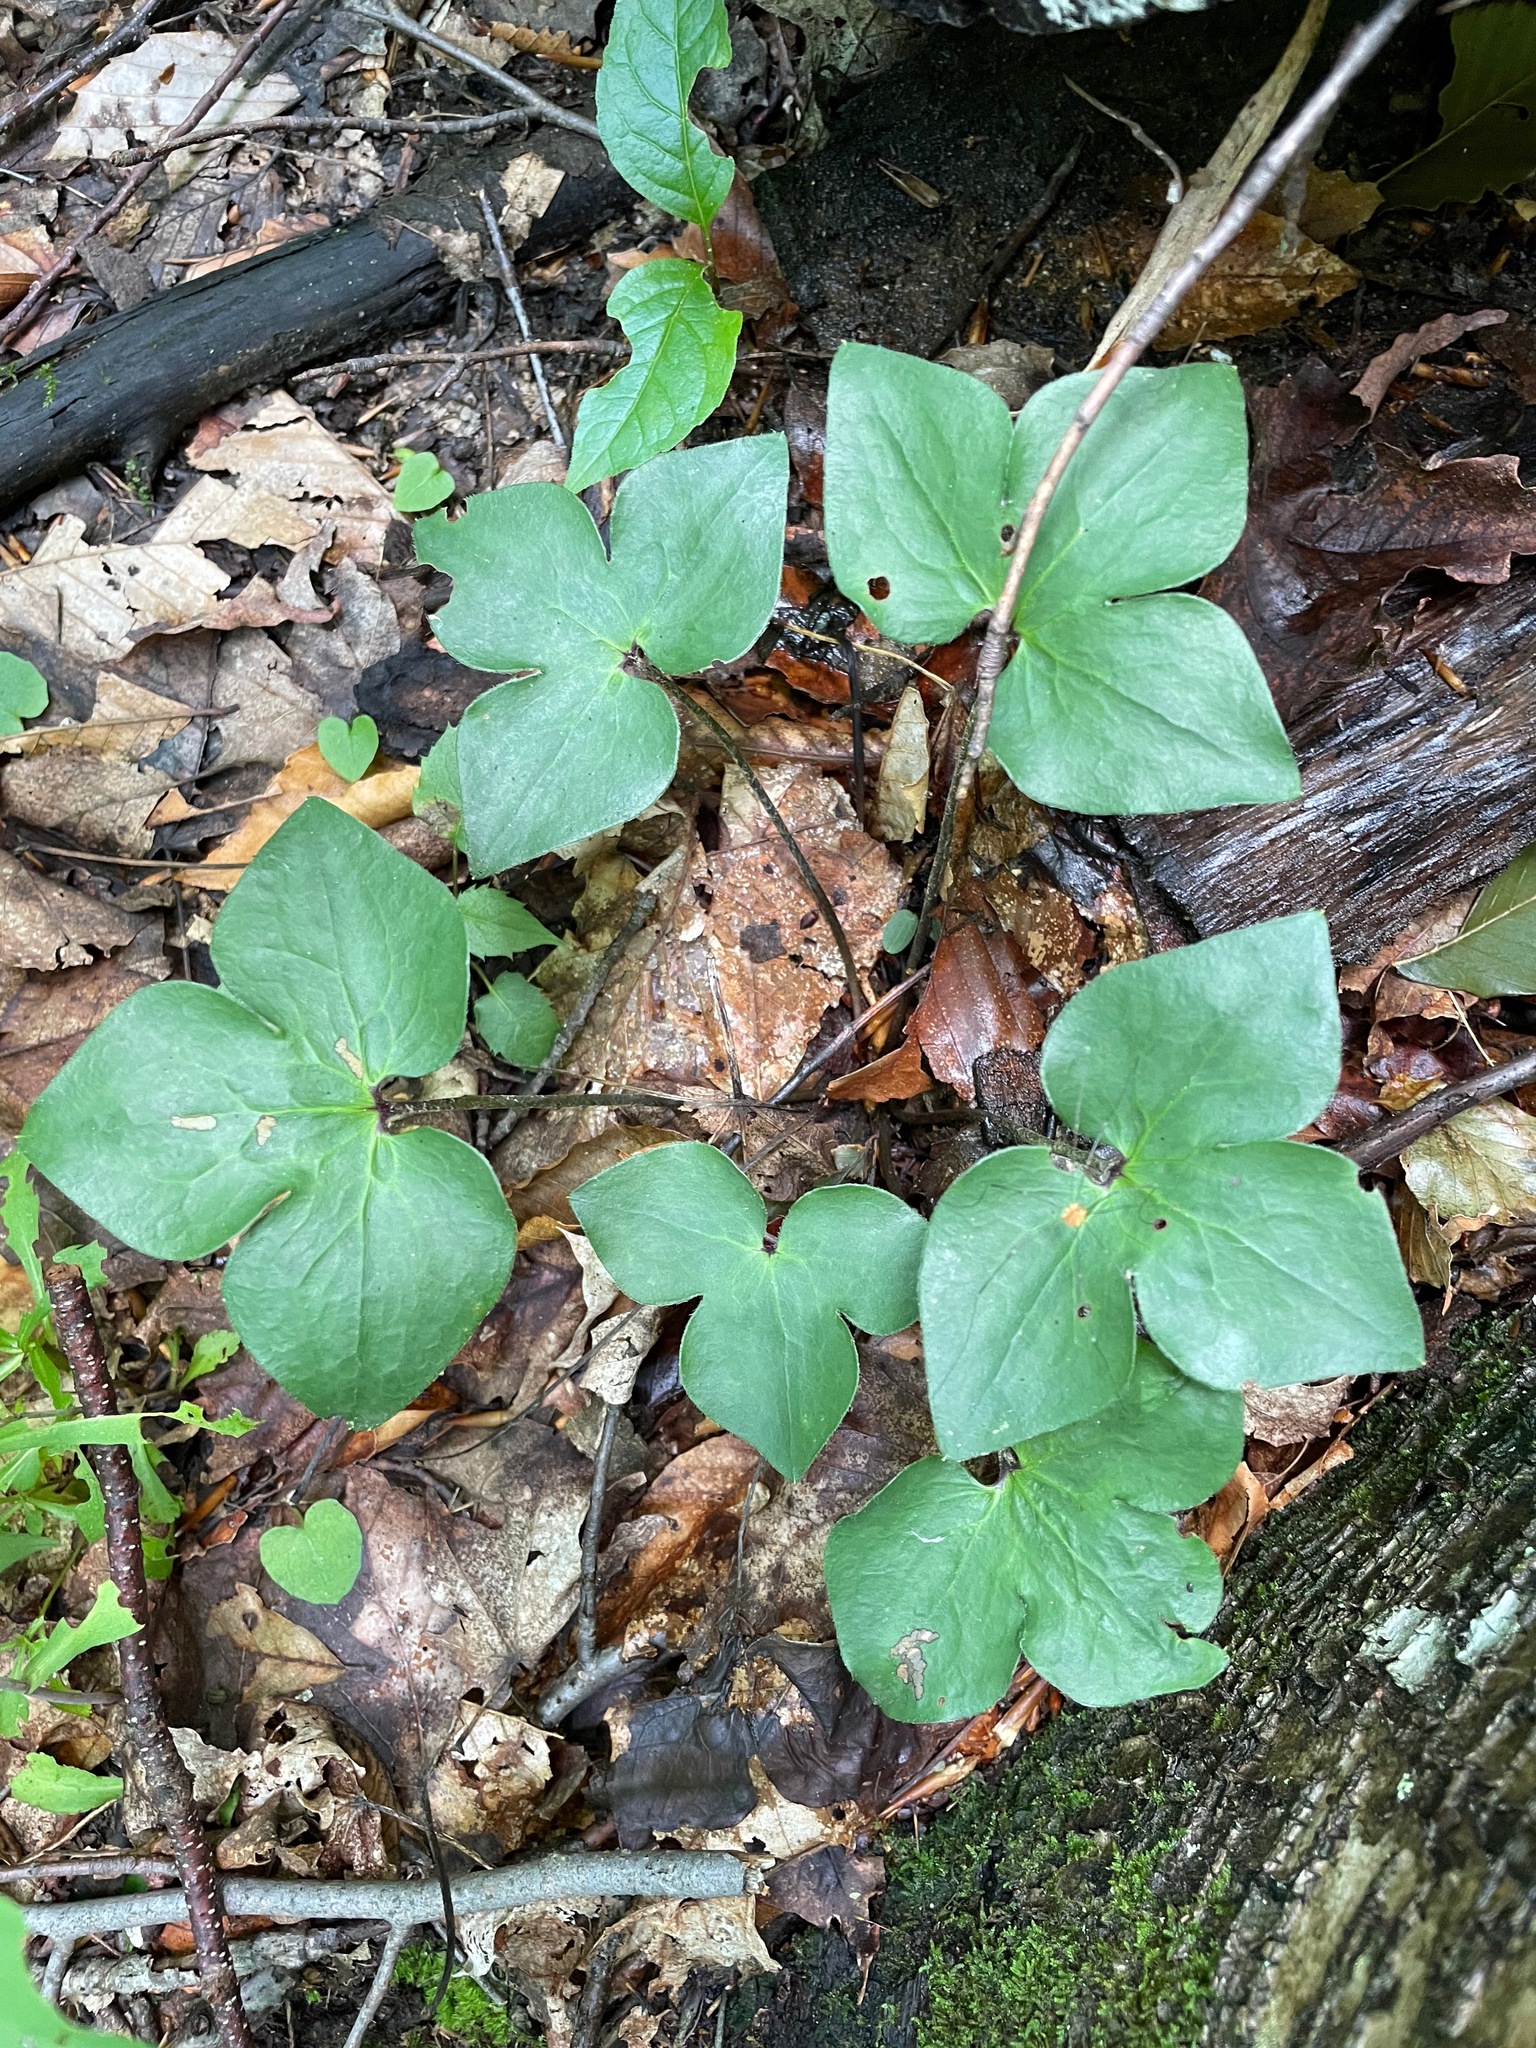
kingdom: Plantae
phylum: Tracheophyta
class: Magnoliopsida
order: Ranunculales
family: Ranunculaceae
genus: Hepatica
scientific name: Hepatica acutiloba
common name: Sharp-lobed hepatica
